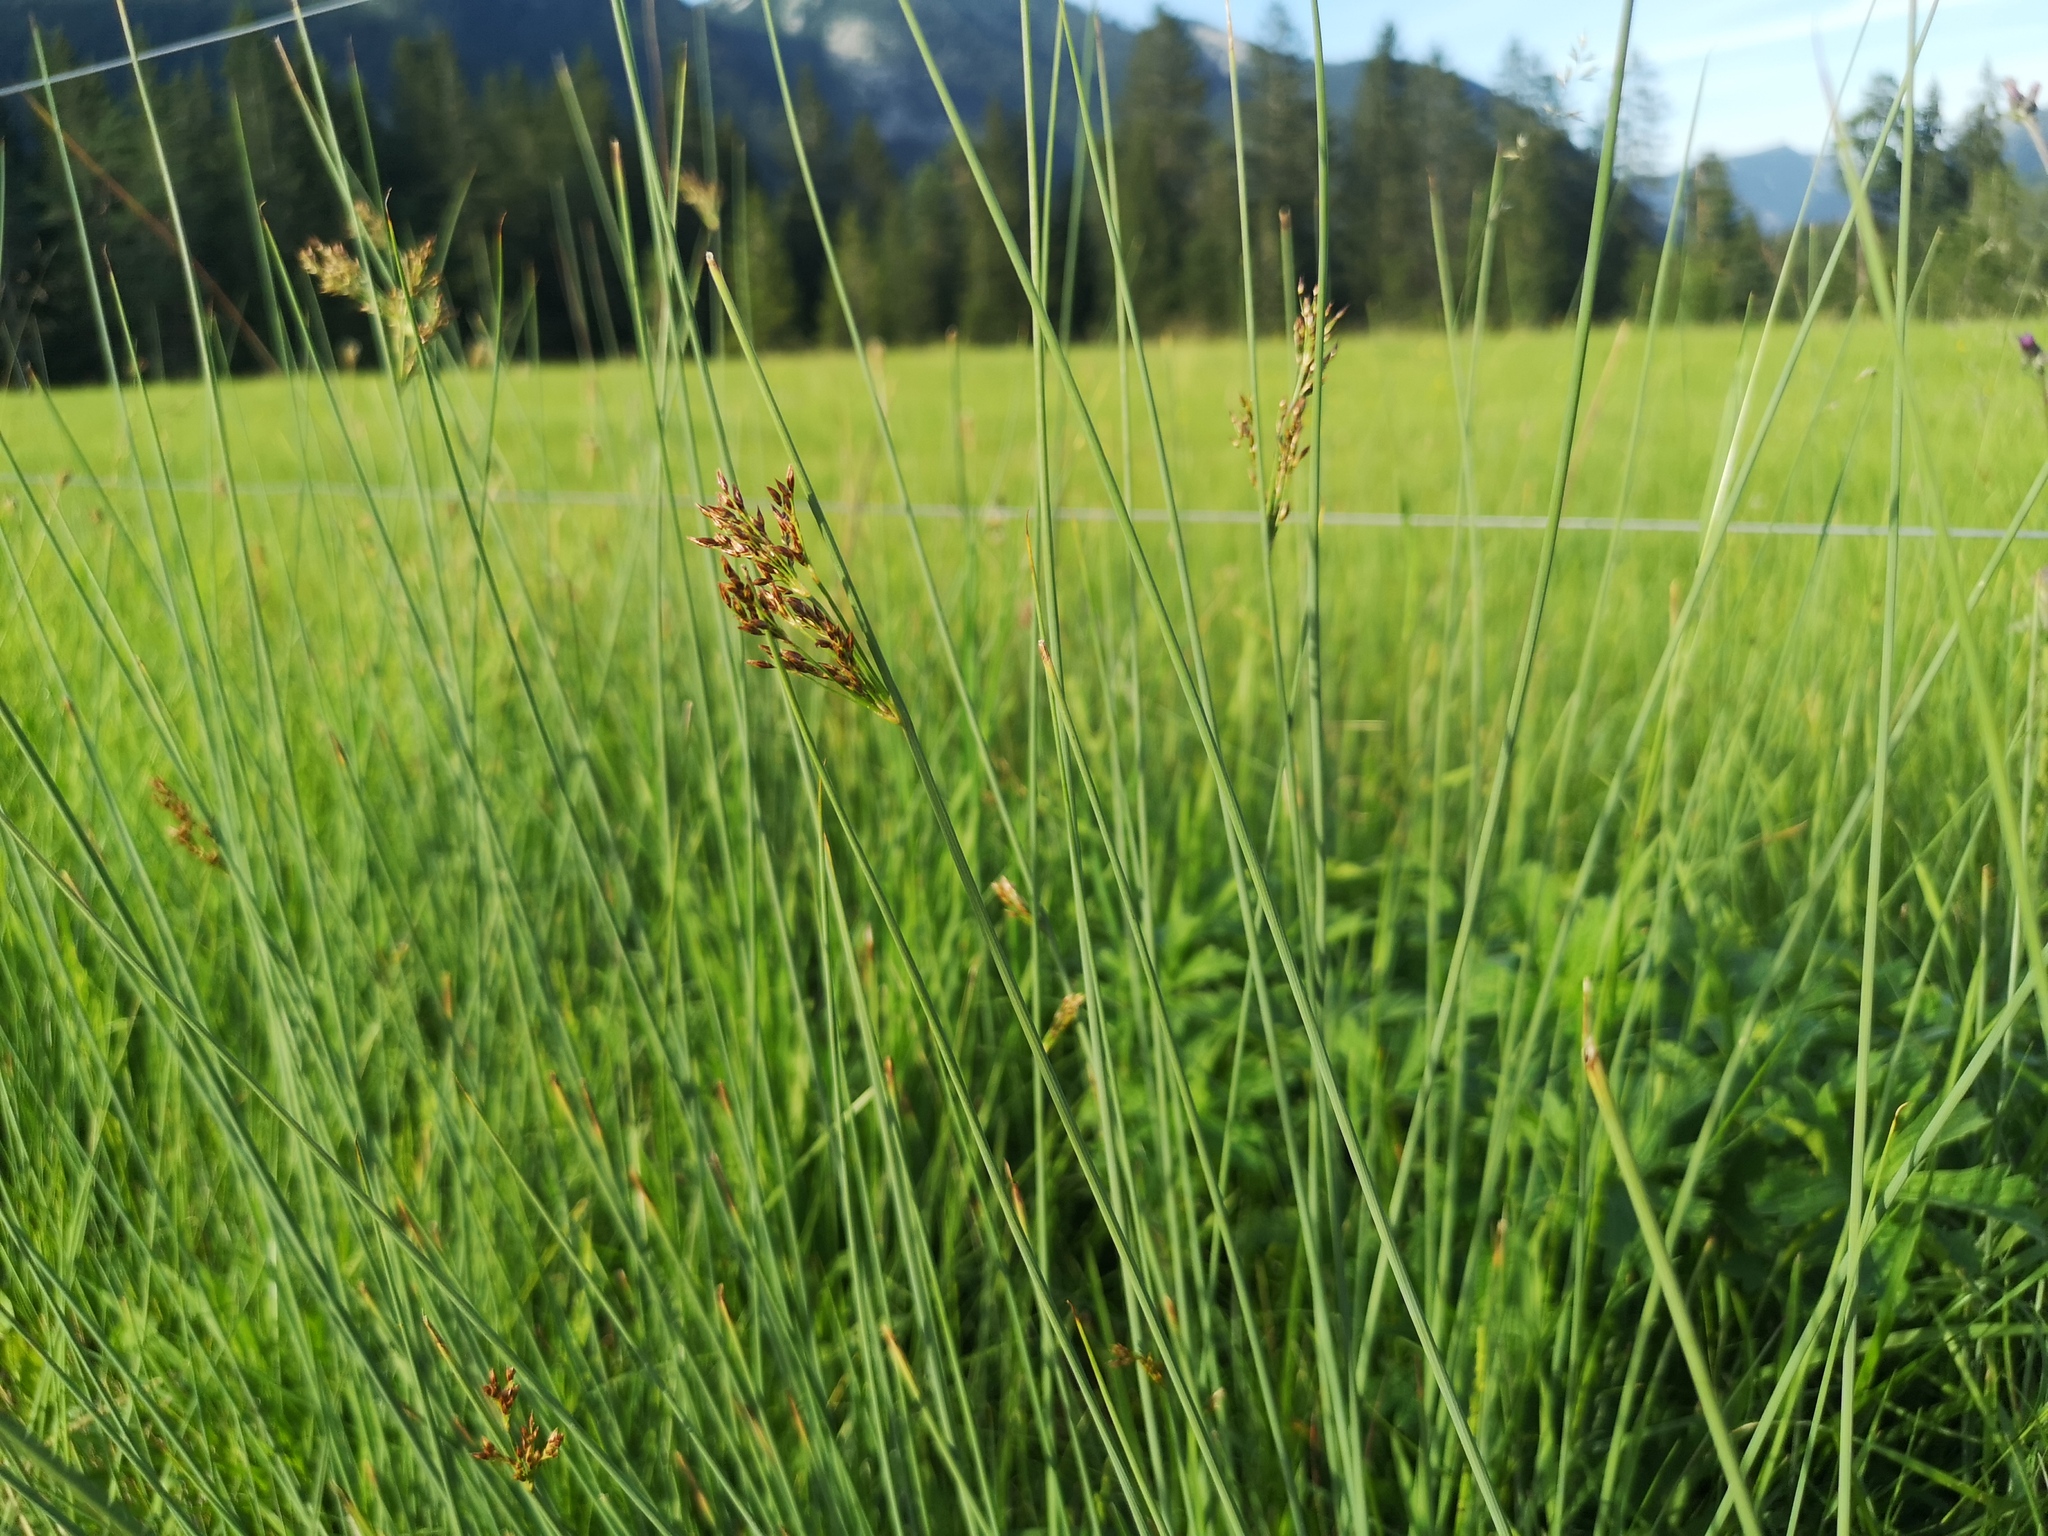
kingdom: Plantae
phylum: Tracheophyta
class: Liliopsida
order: Poales
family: Juncaceae
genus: Juncus
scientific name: Juncus inflexus
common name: Hard rush
